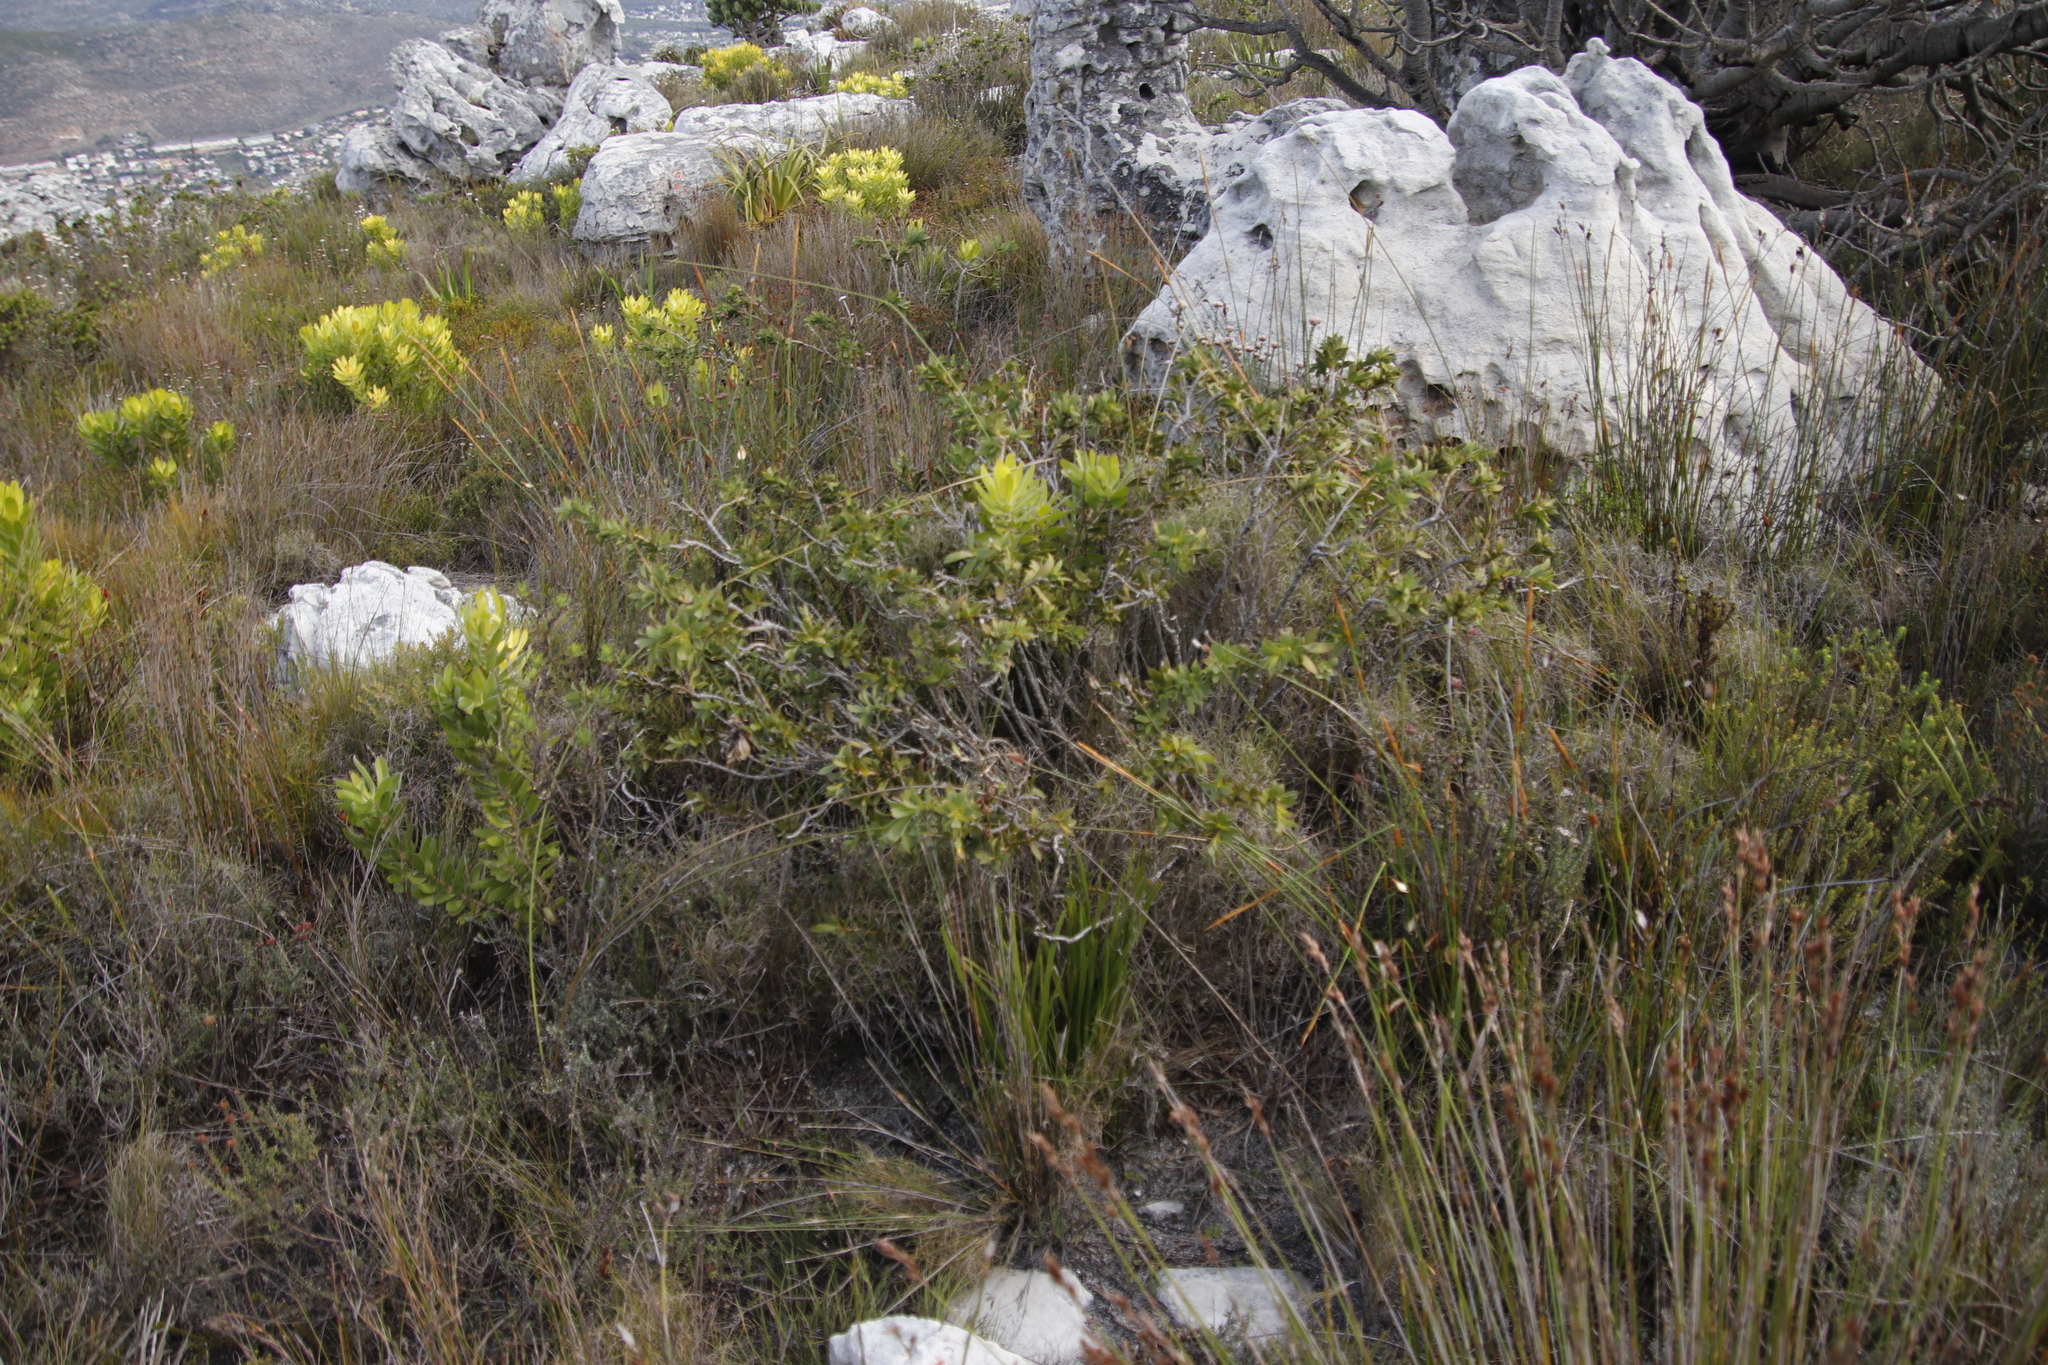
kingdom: Plantae
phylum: Tracheophyta
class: Magnoliopsida
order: Fabales
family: Fabaceae
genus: Liparia
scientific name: Liparia splendens
